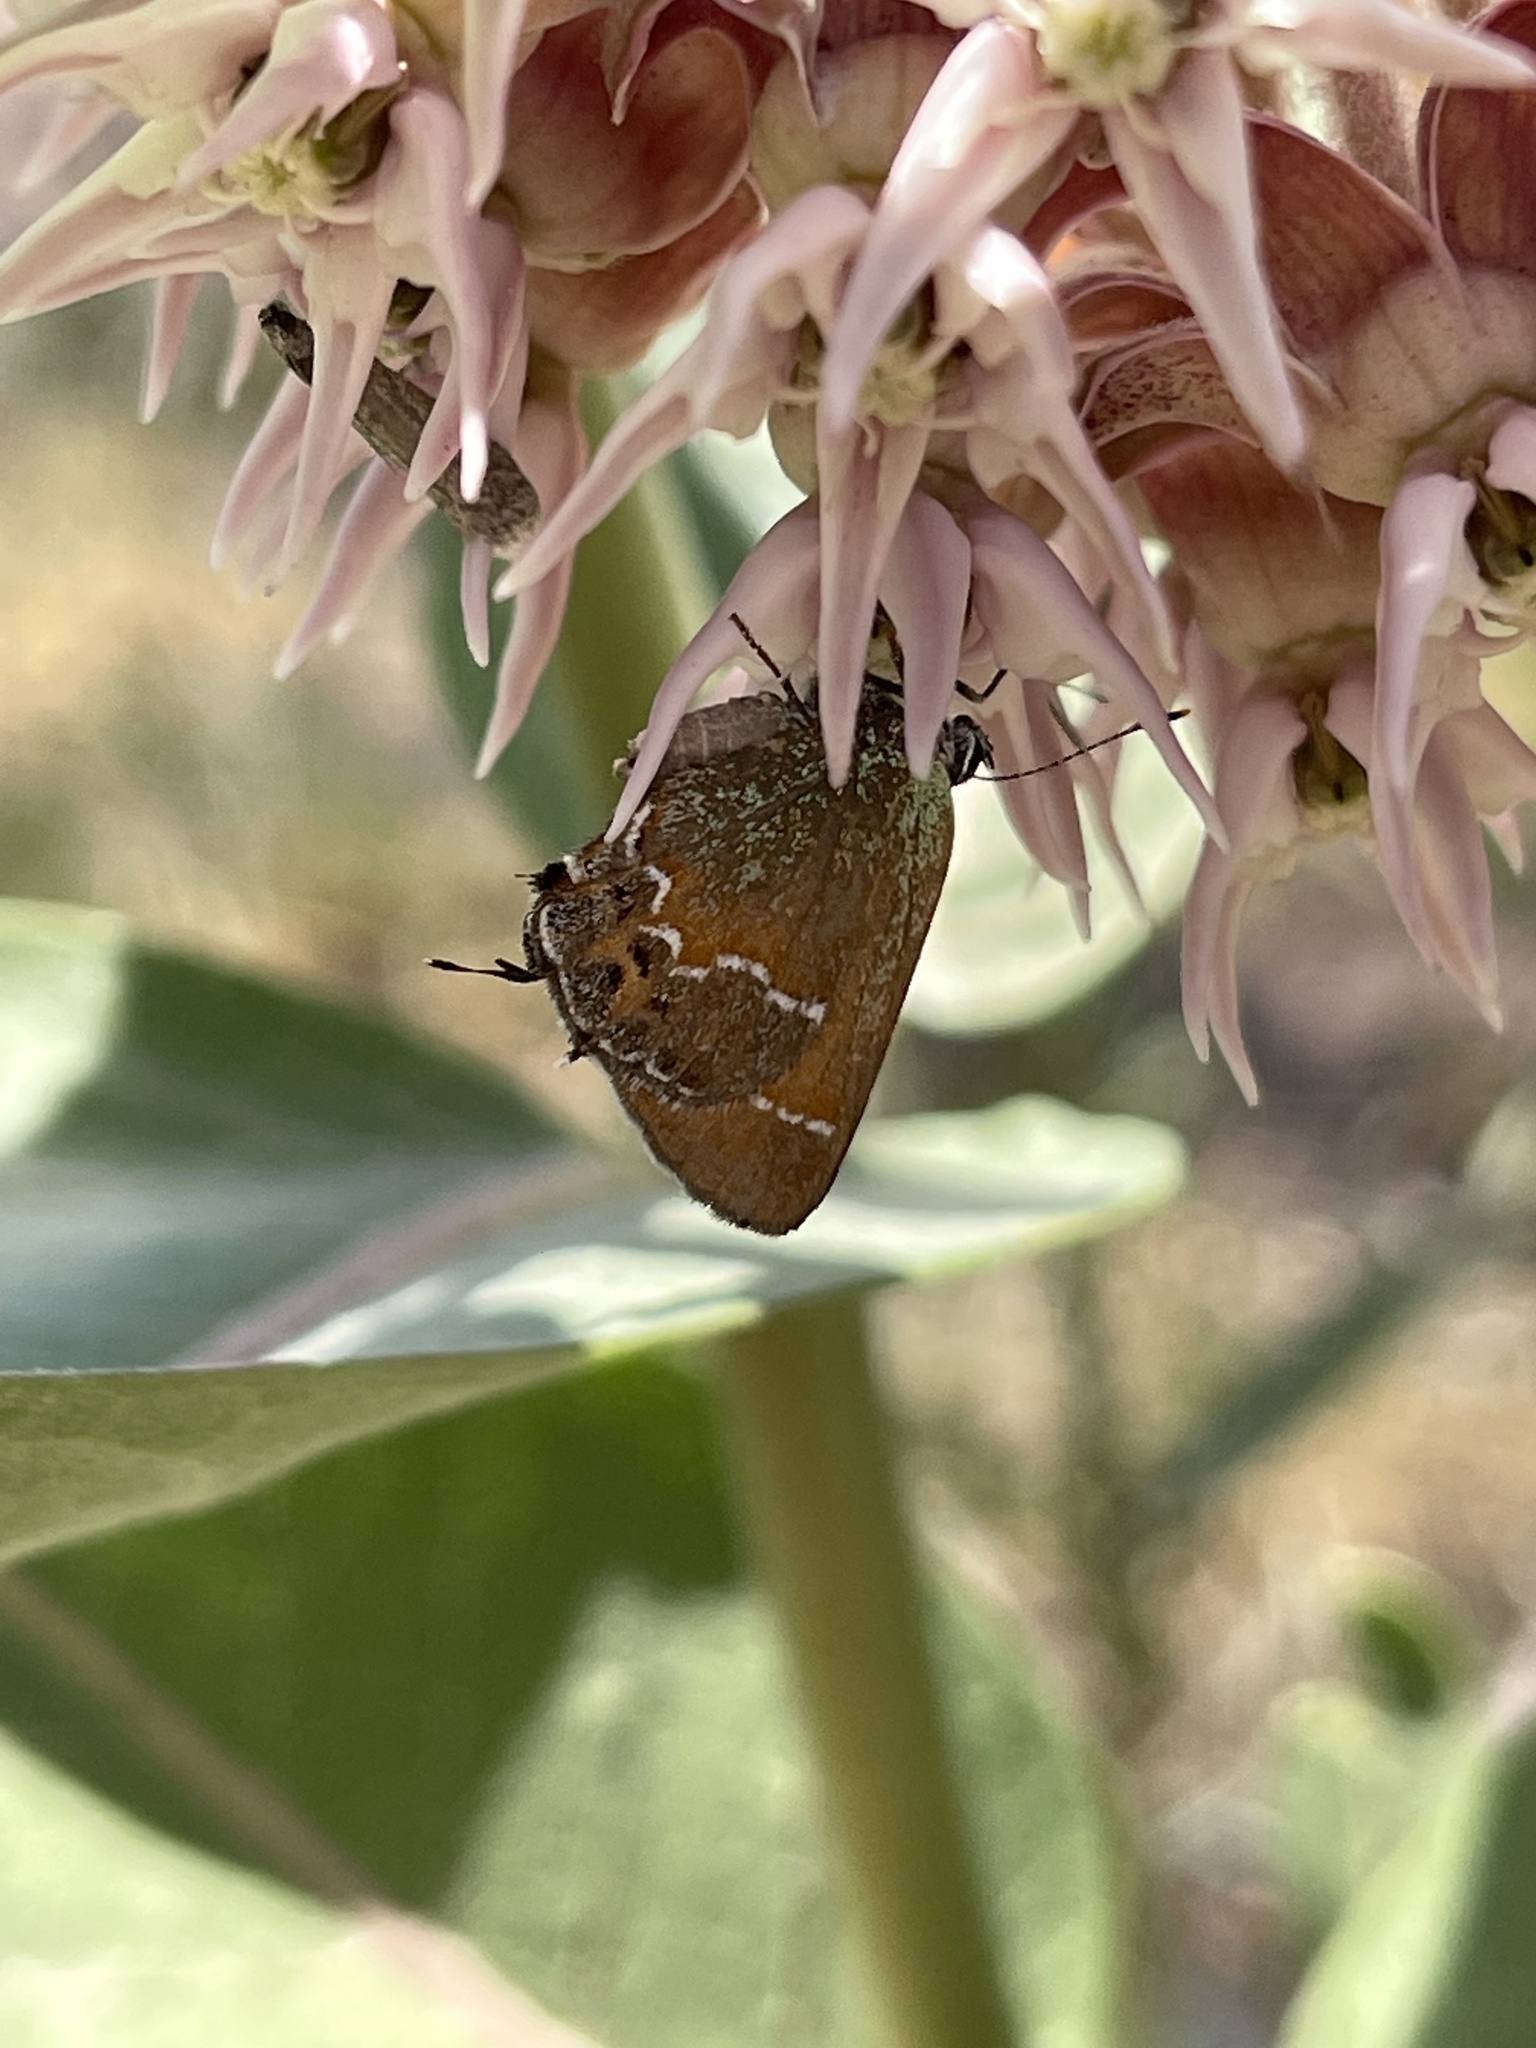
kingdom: Animalia
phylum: Arthropoda
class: Insecta
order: Lepidoptera
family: Lycaenidae
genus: Mitoura
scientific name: Mitoura siva
